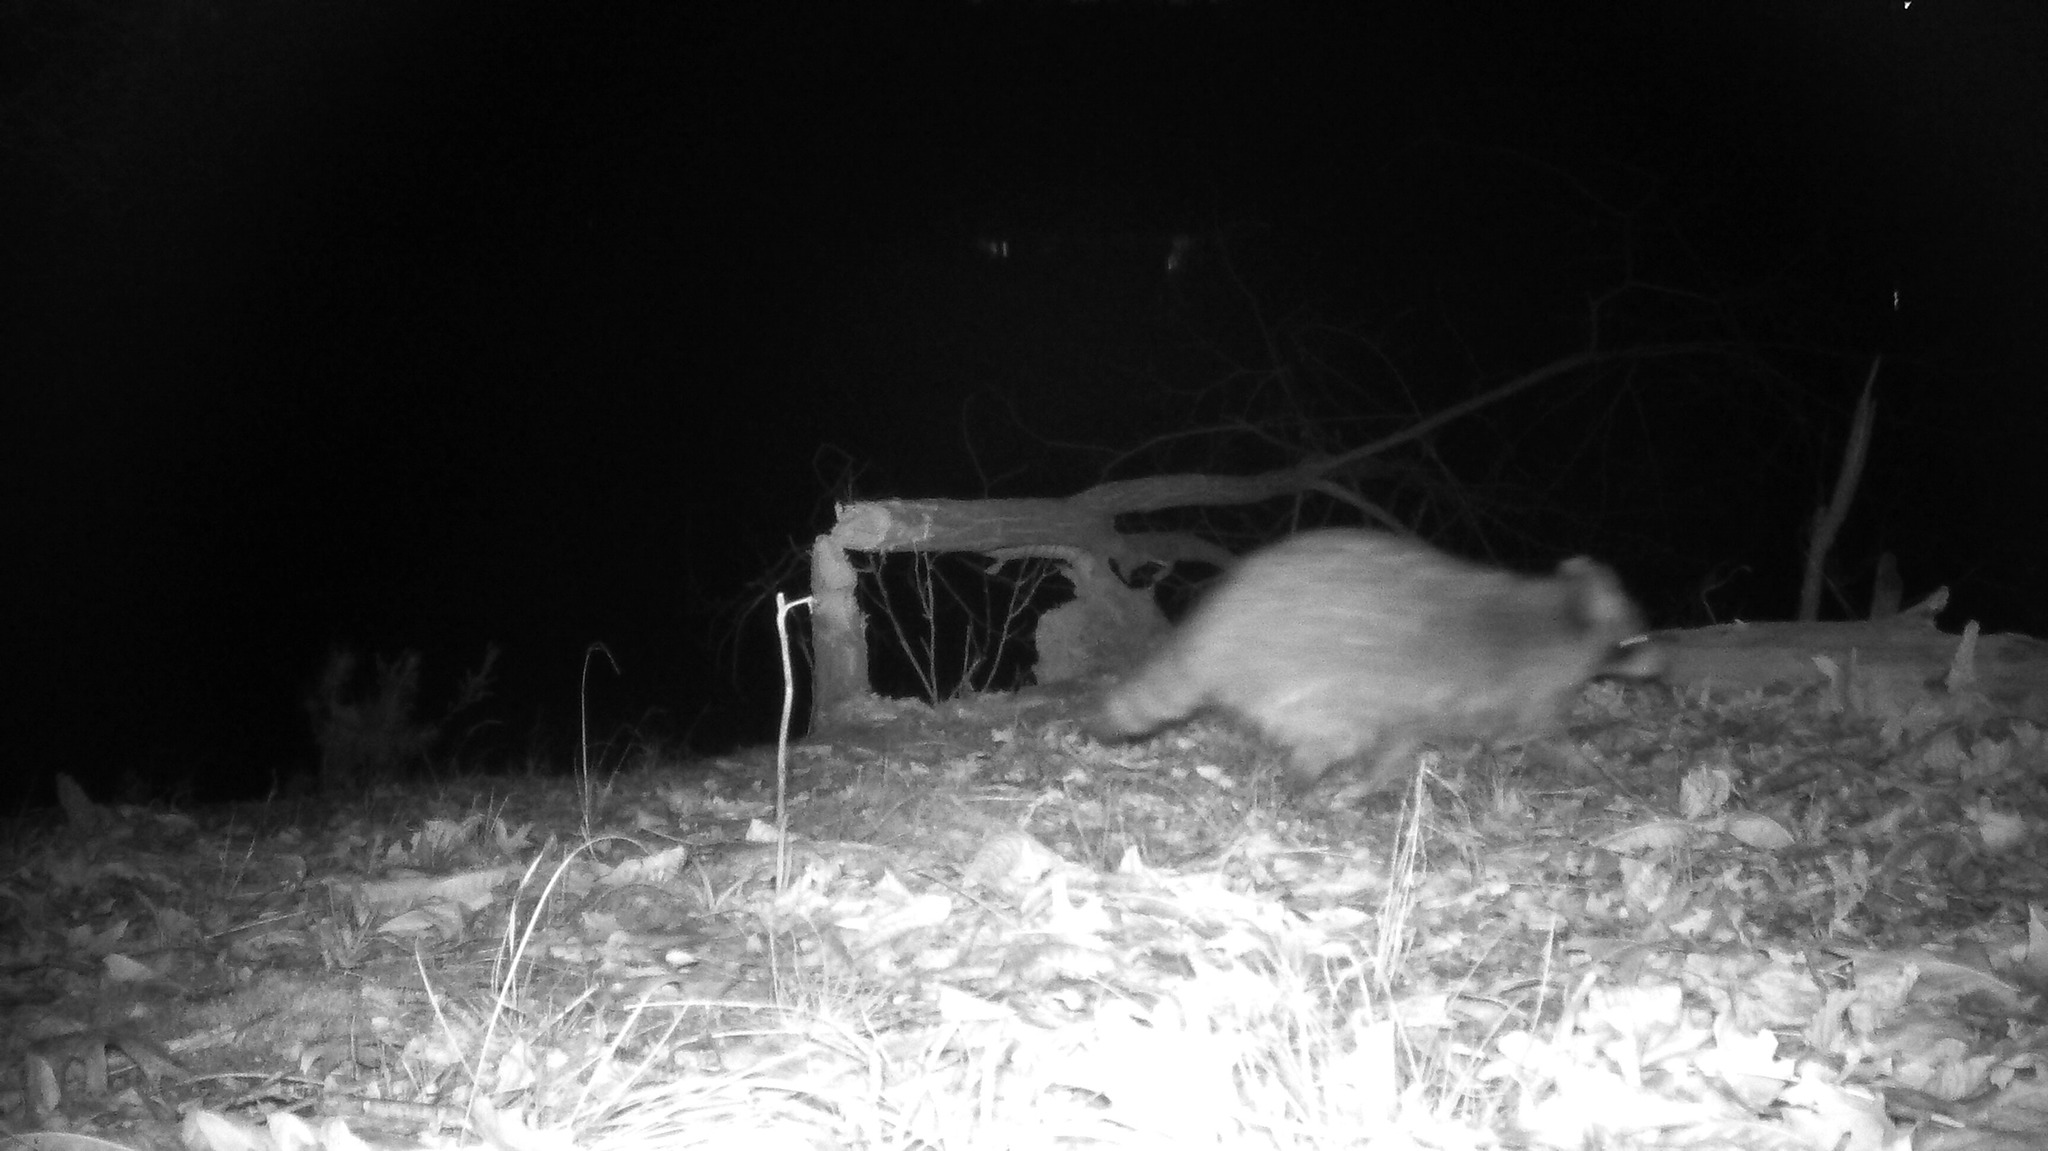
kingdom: Animalia
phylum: Chordata
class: Mammalia
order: Carnivora
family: Procyonidae
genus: Procyon
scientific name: Procyon lotor
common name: Raccoon
